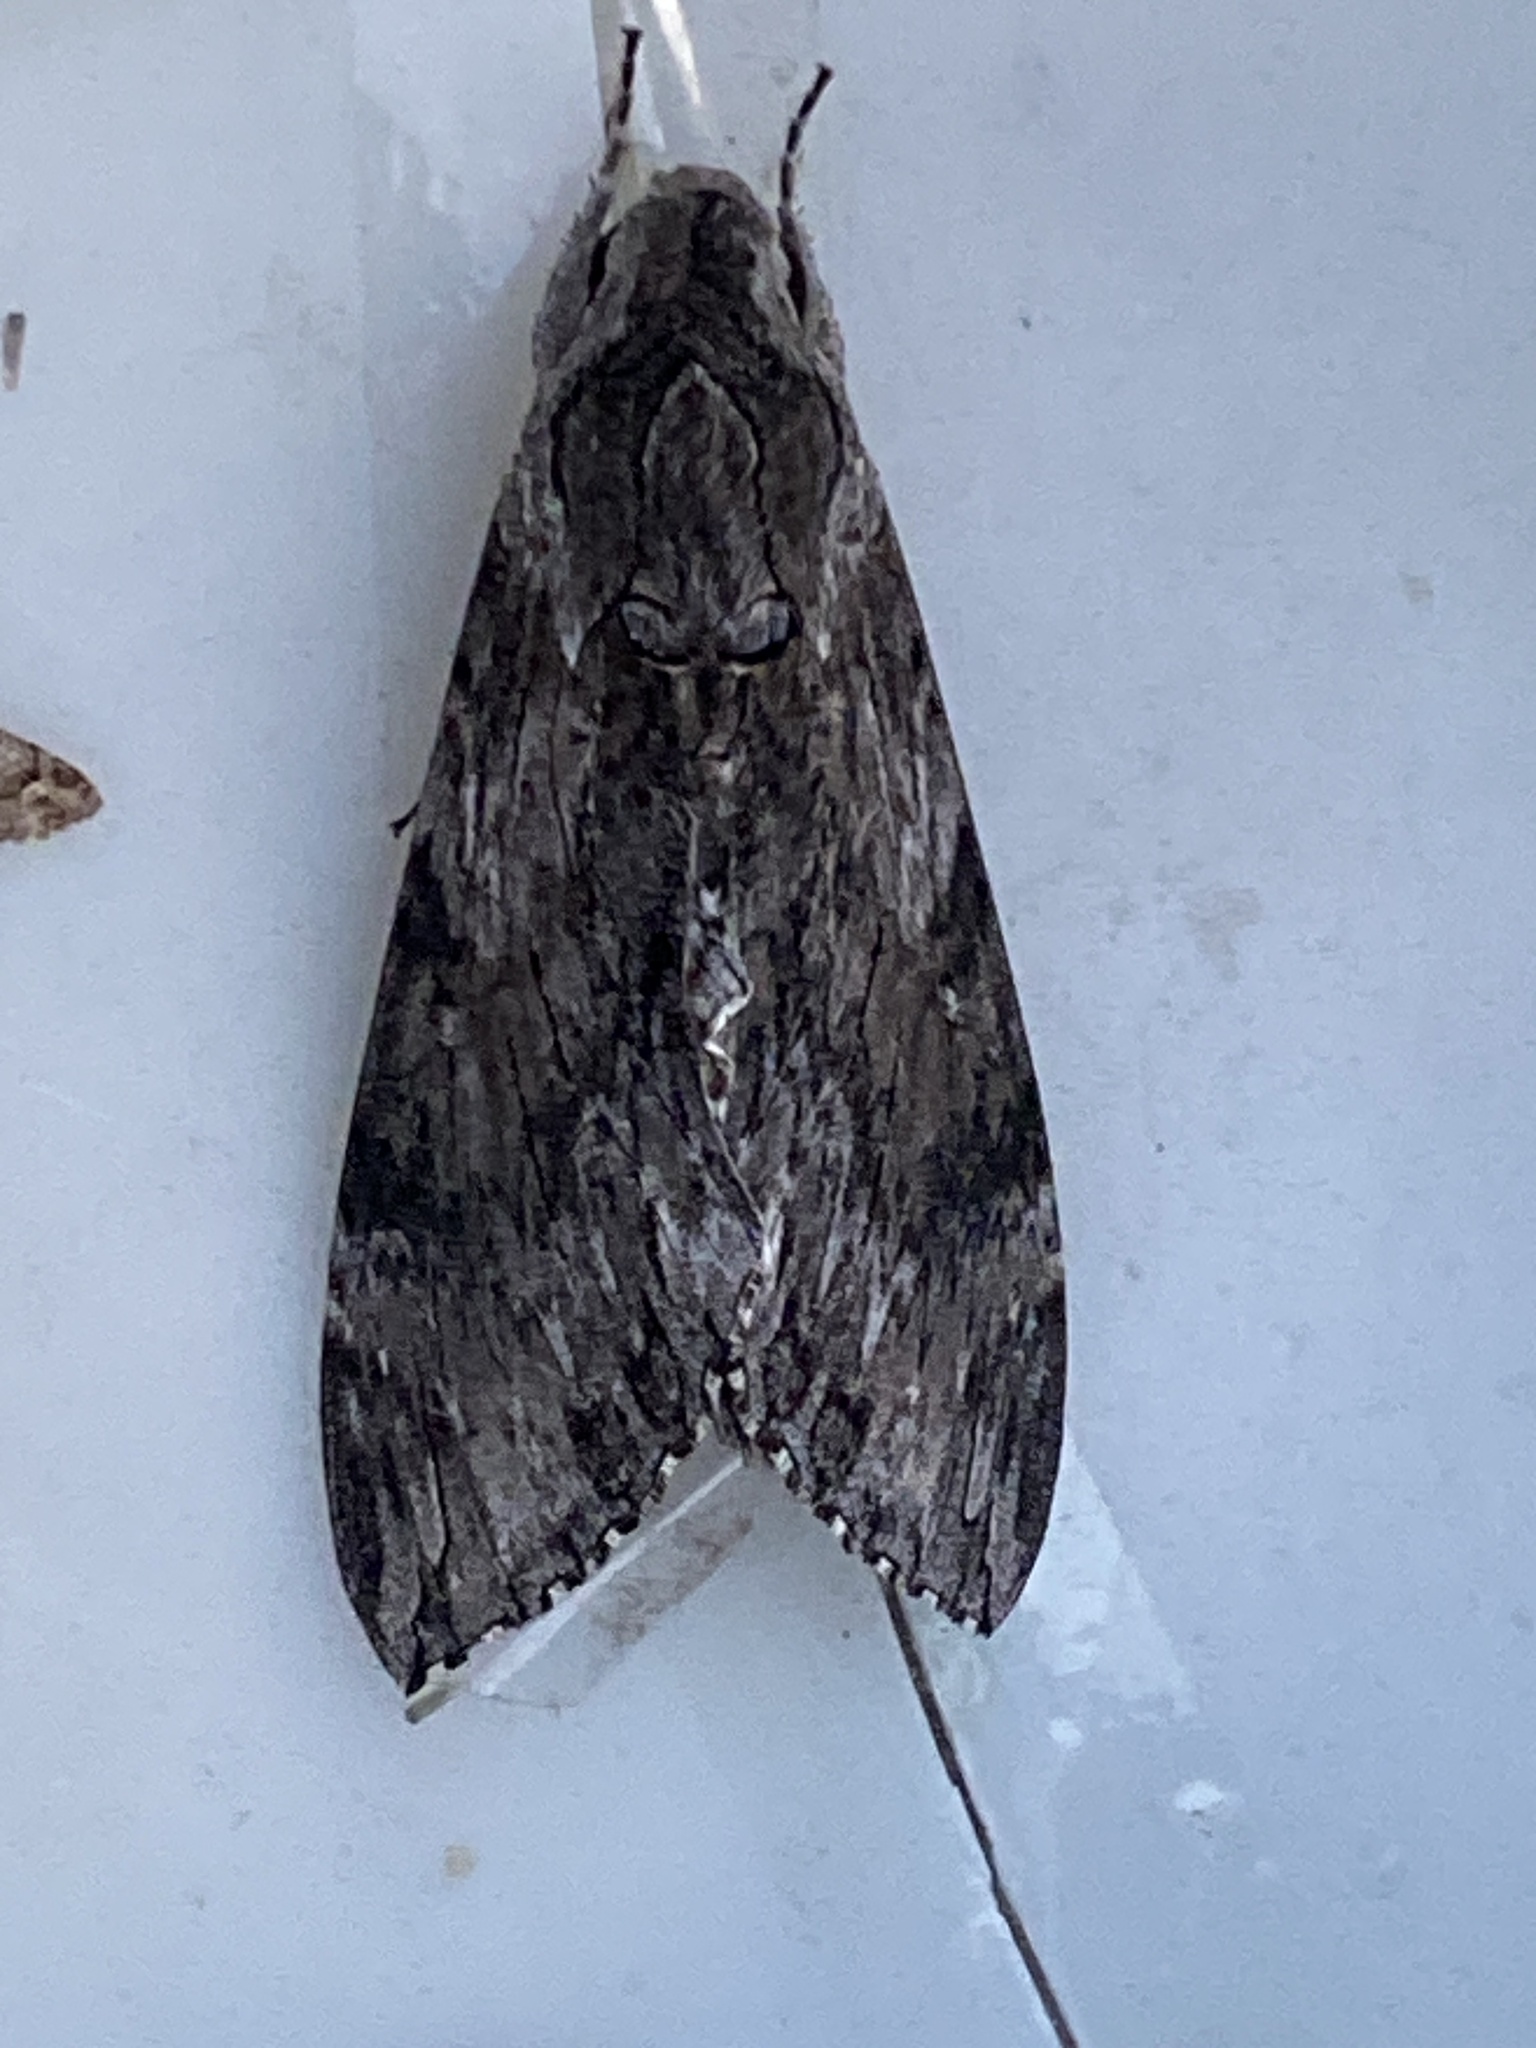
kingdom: Animalia
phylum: Arthropoda
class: Insecta
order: Lepidoptera
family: Sphingidae
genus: Agrius
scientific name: Agrius convolvuli
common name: Convolvulus hawkmoth
